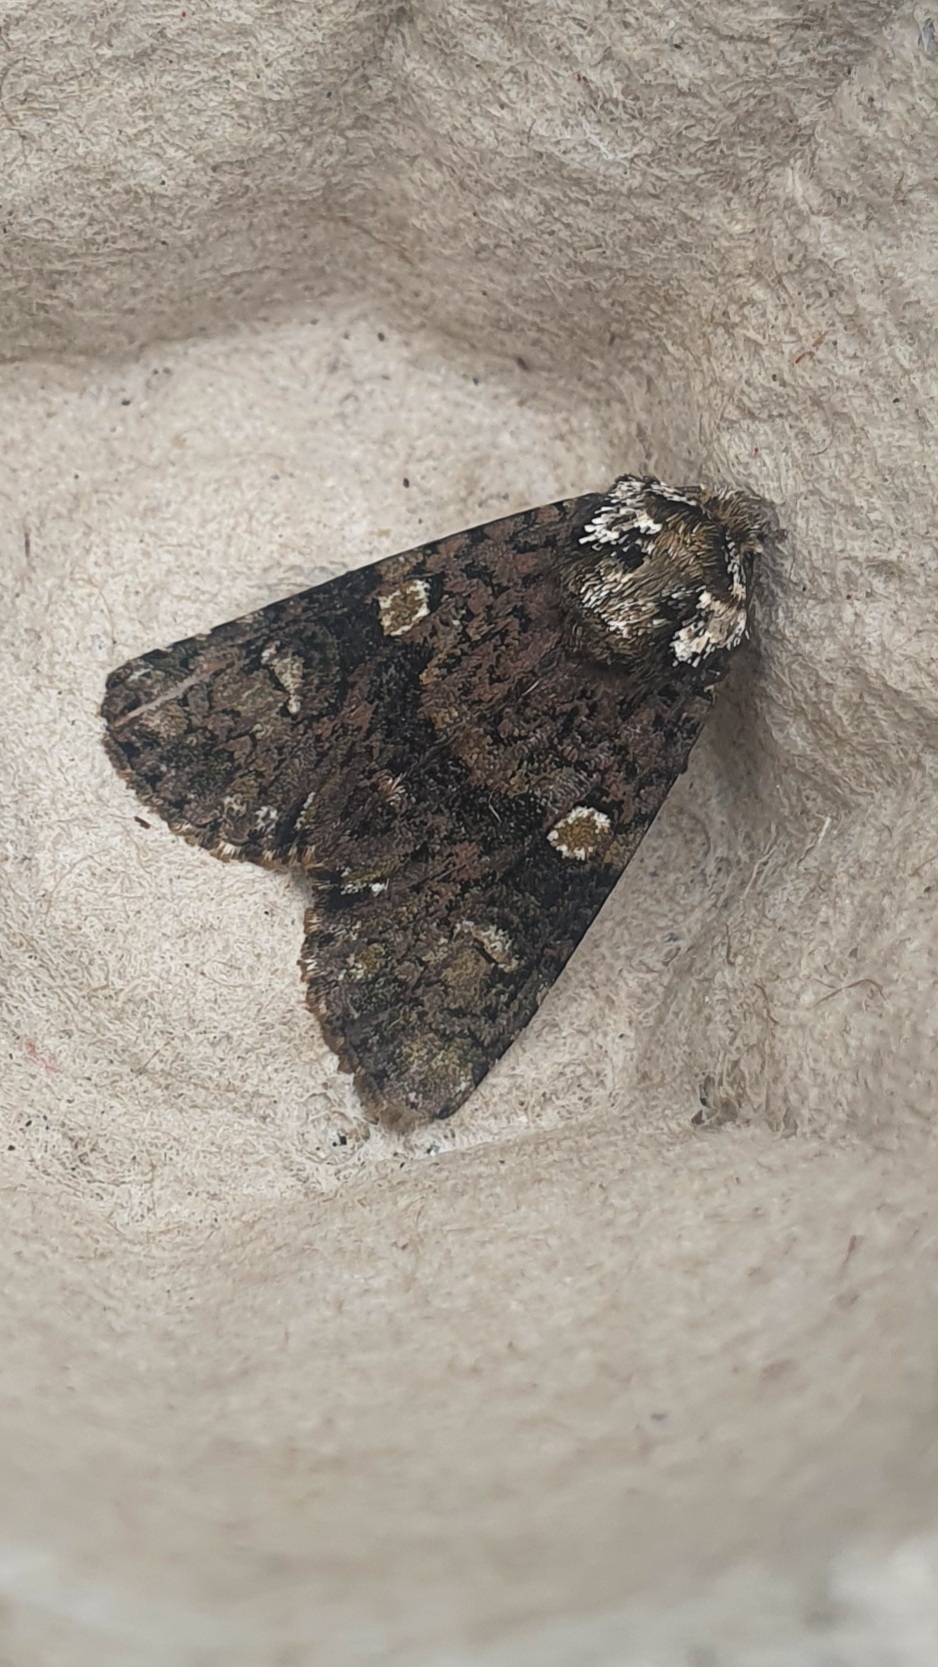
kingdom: Animalia
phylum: Arthropoda
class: Insecta
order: Lepidoptera
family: Noctuidae
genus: Craniophora
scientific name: Craniophora ligustri
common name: Coronet
